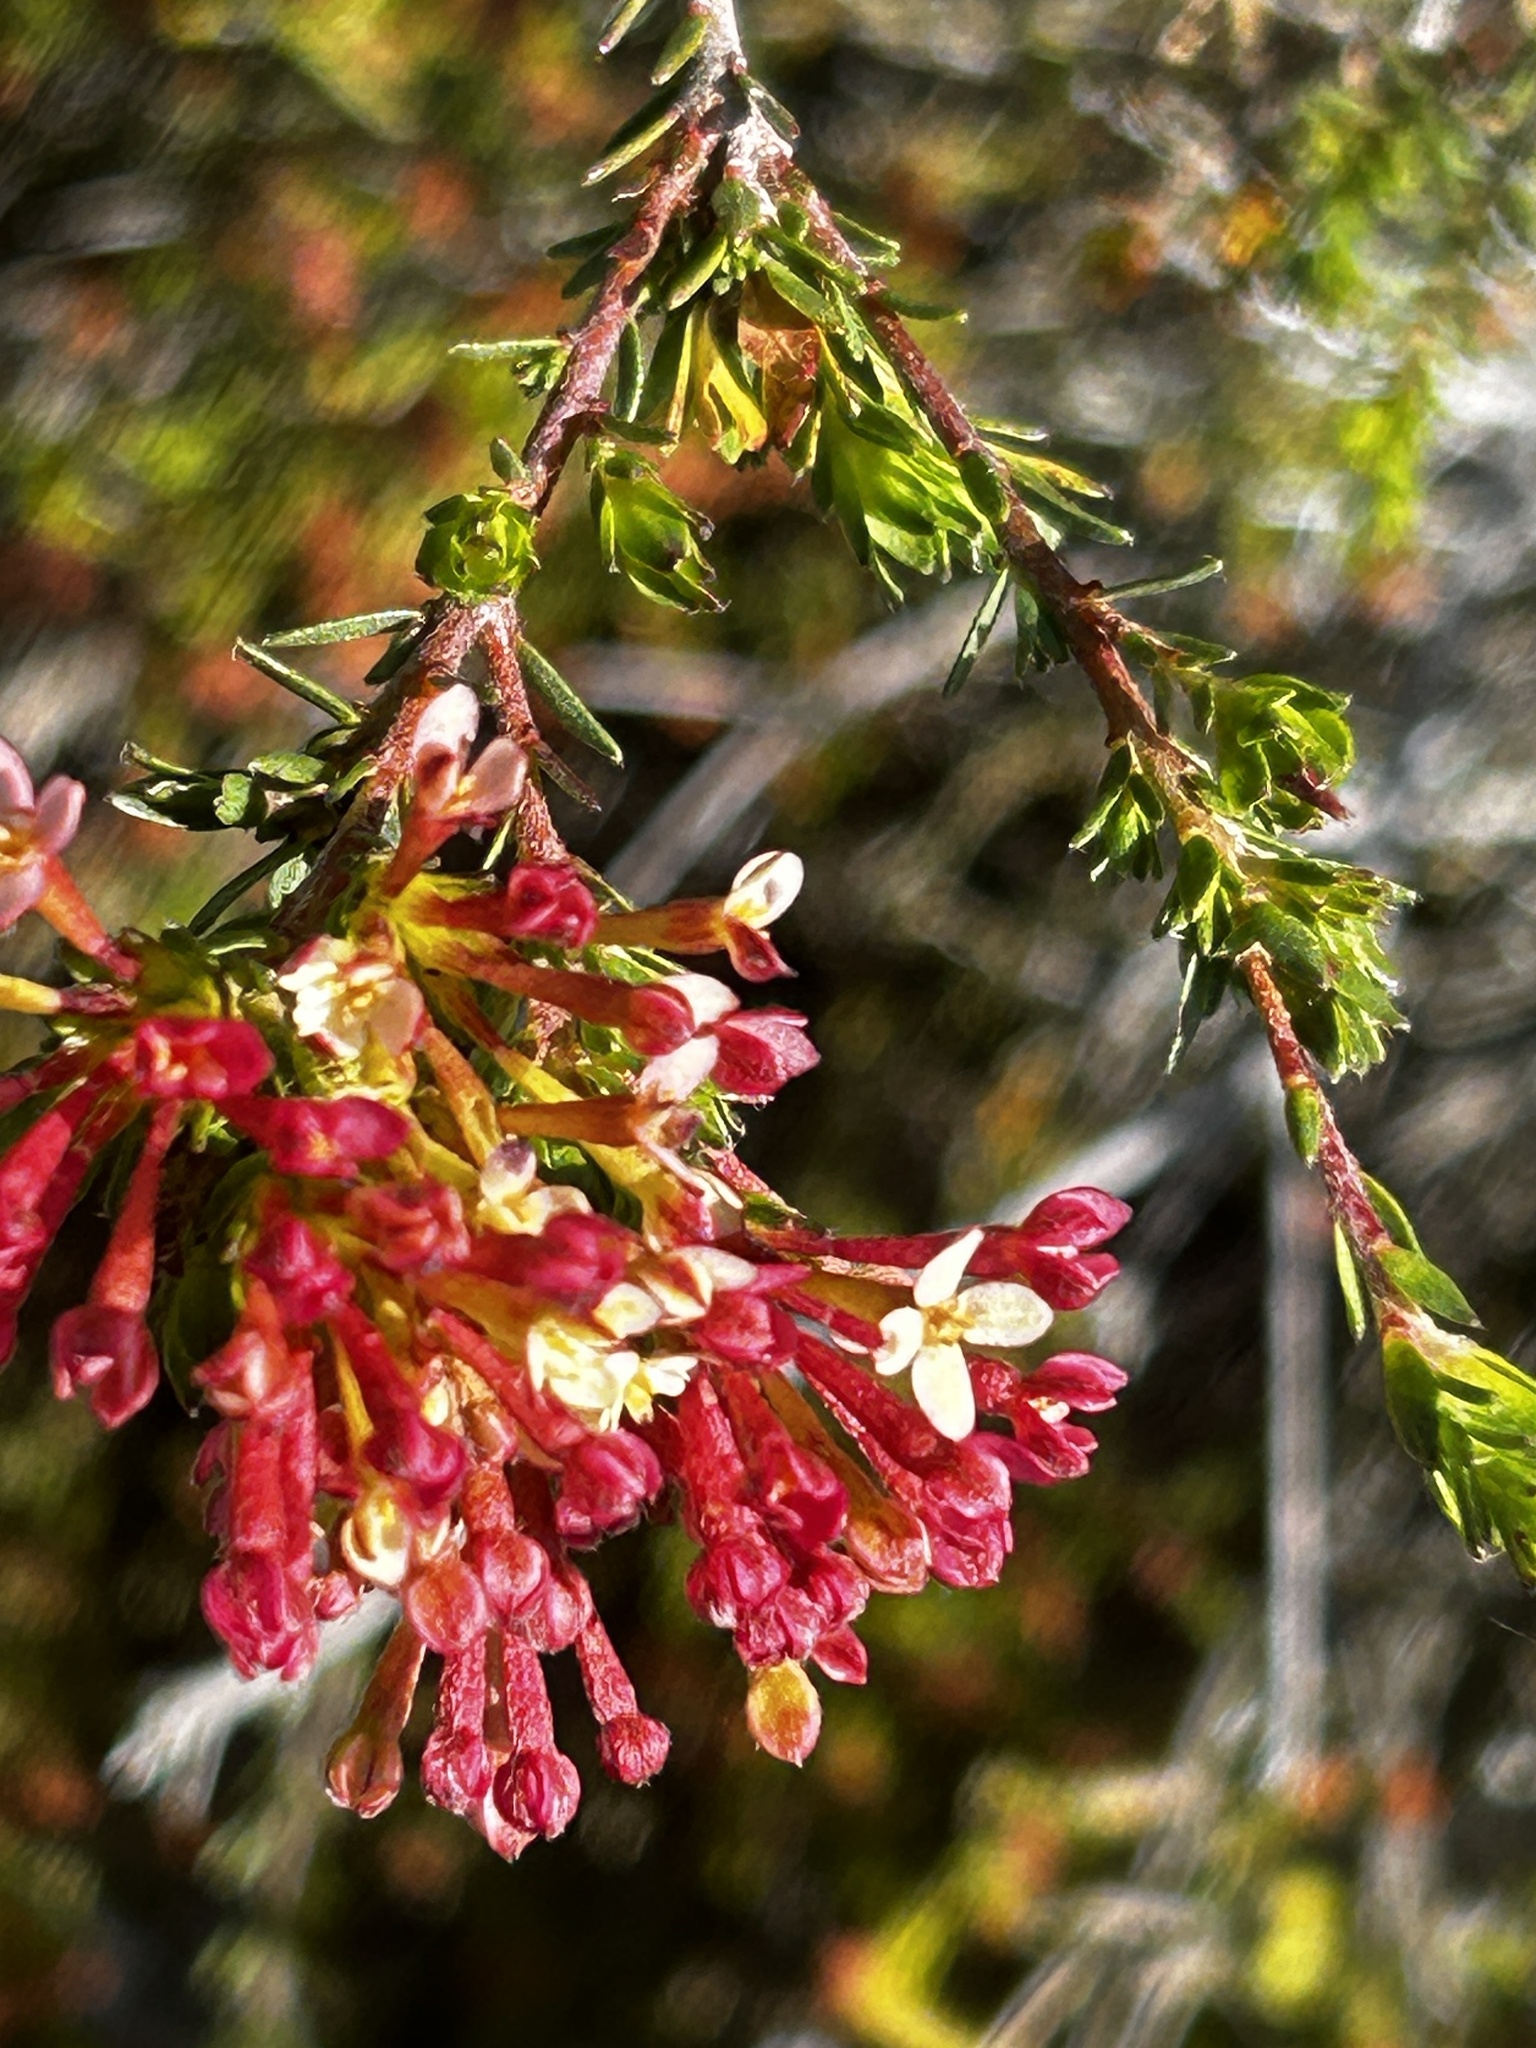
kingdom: Plantae
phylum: Tracheophyta
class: Magnoliopsida
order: Malvales
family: Thymelaeaceae
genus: Gnidia
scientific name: Gnidia squarrosa
